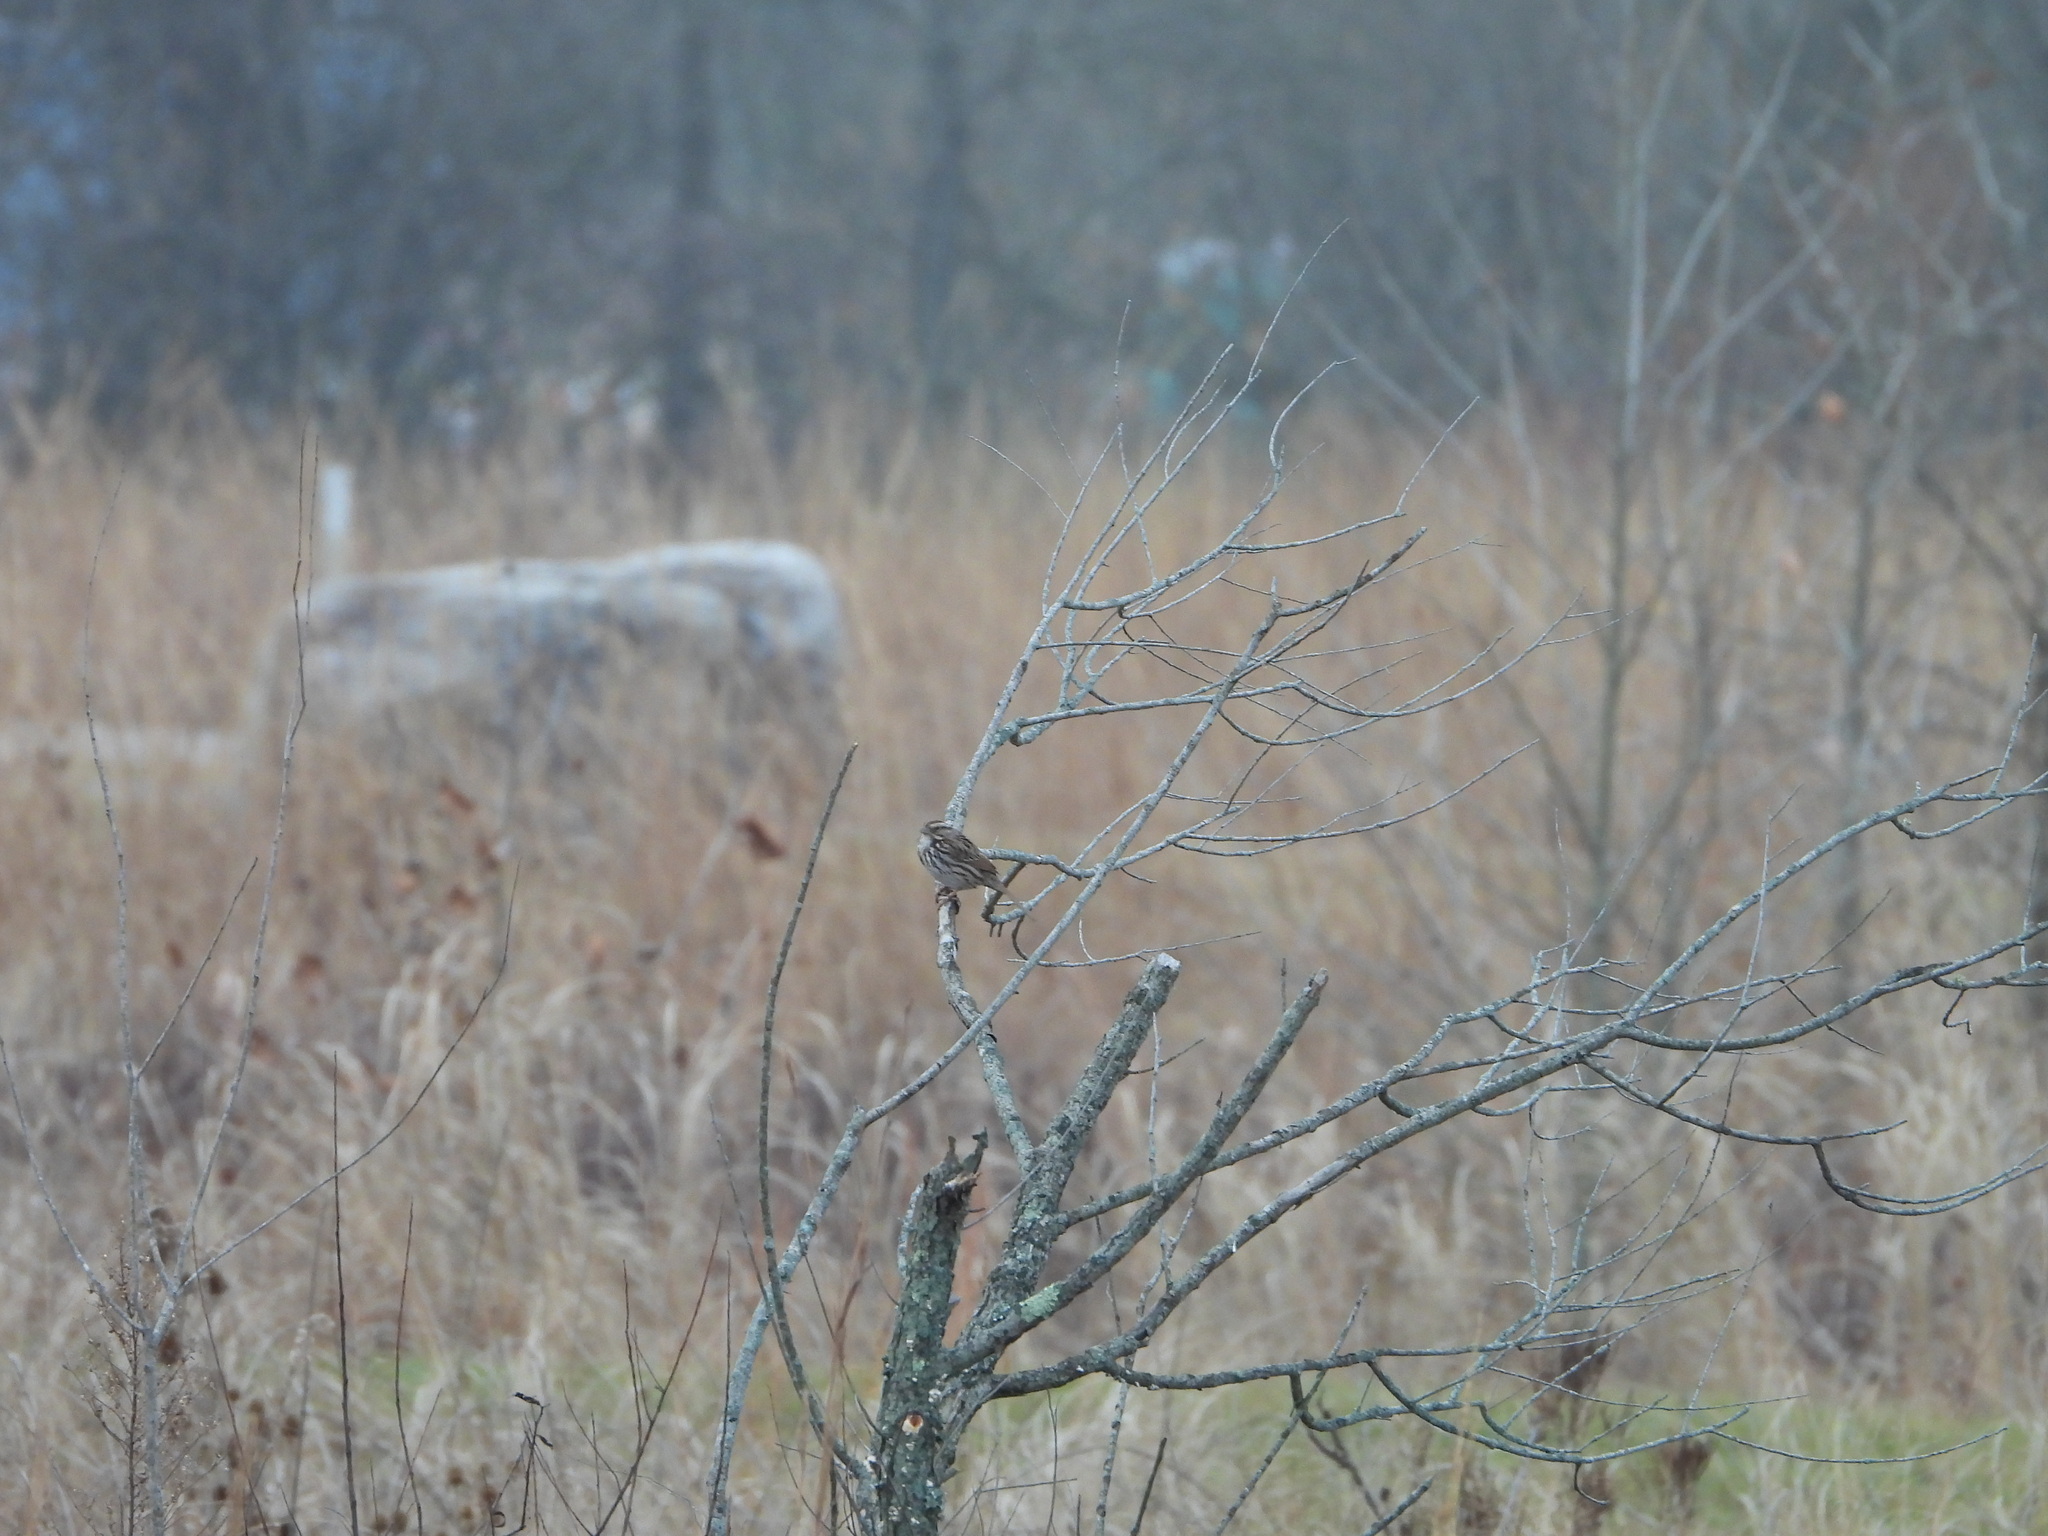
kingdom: Animalia
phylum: Chordata
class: Aves
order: Passeriformes
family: Passerellidae
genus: Melospiza
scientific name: Melospiza melodia
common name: Song sparrow
